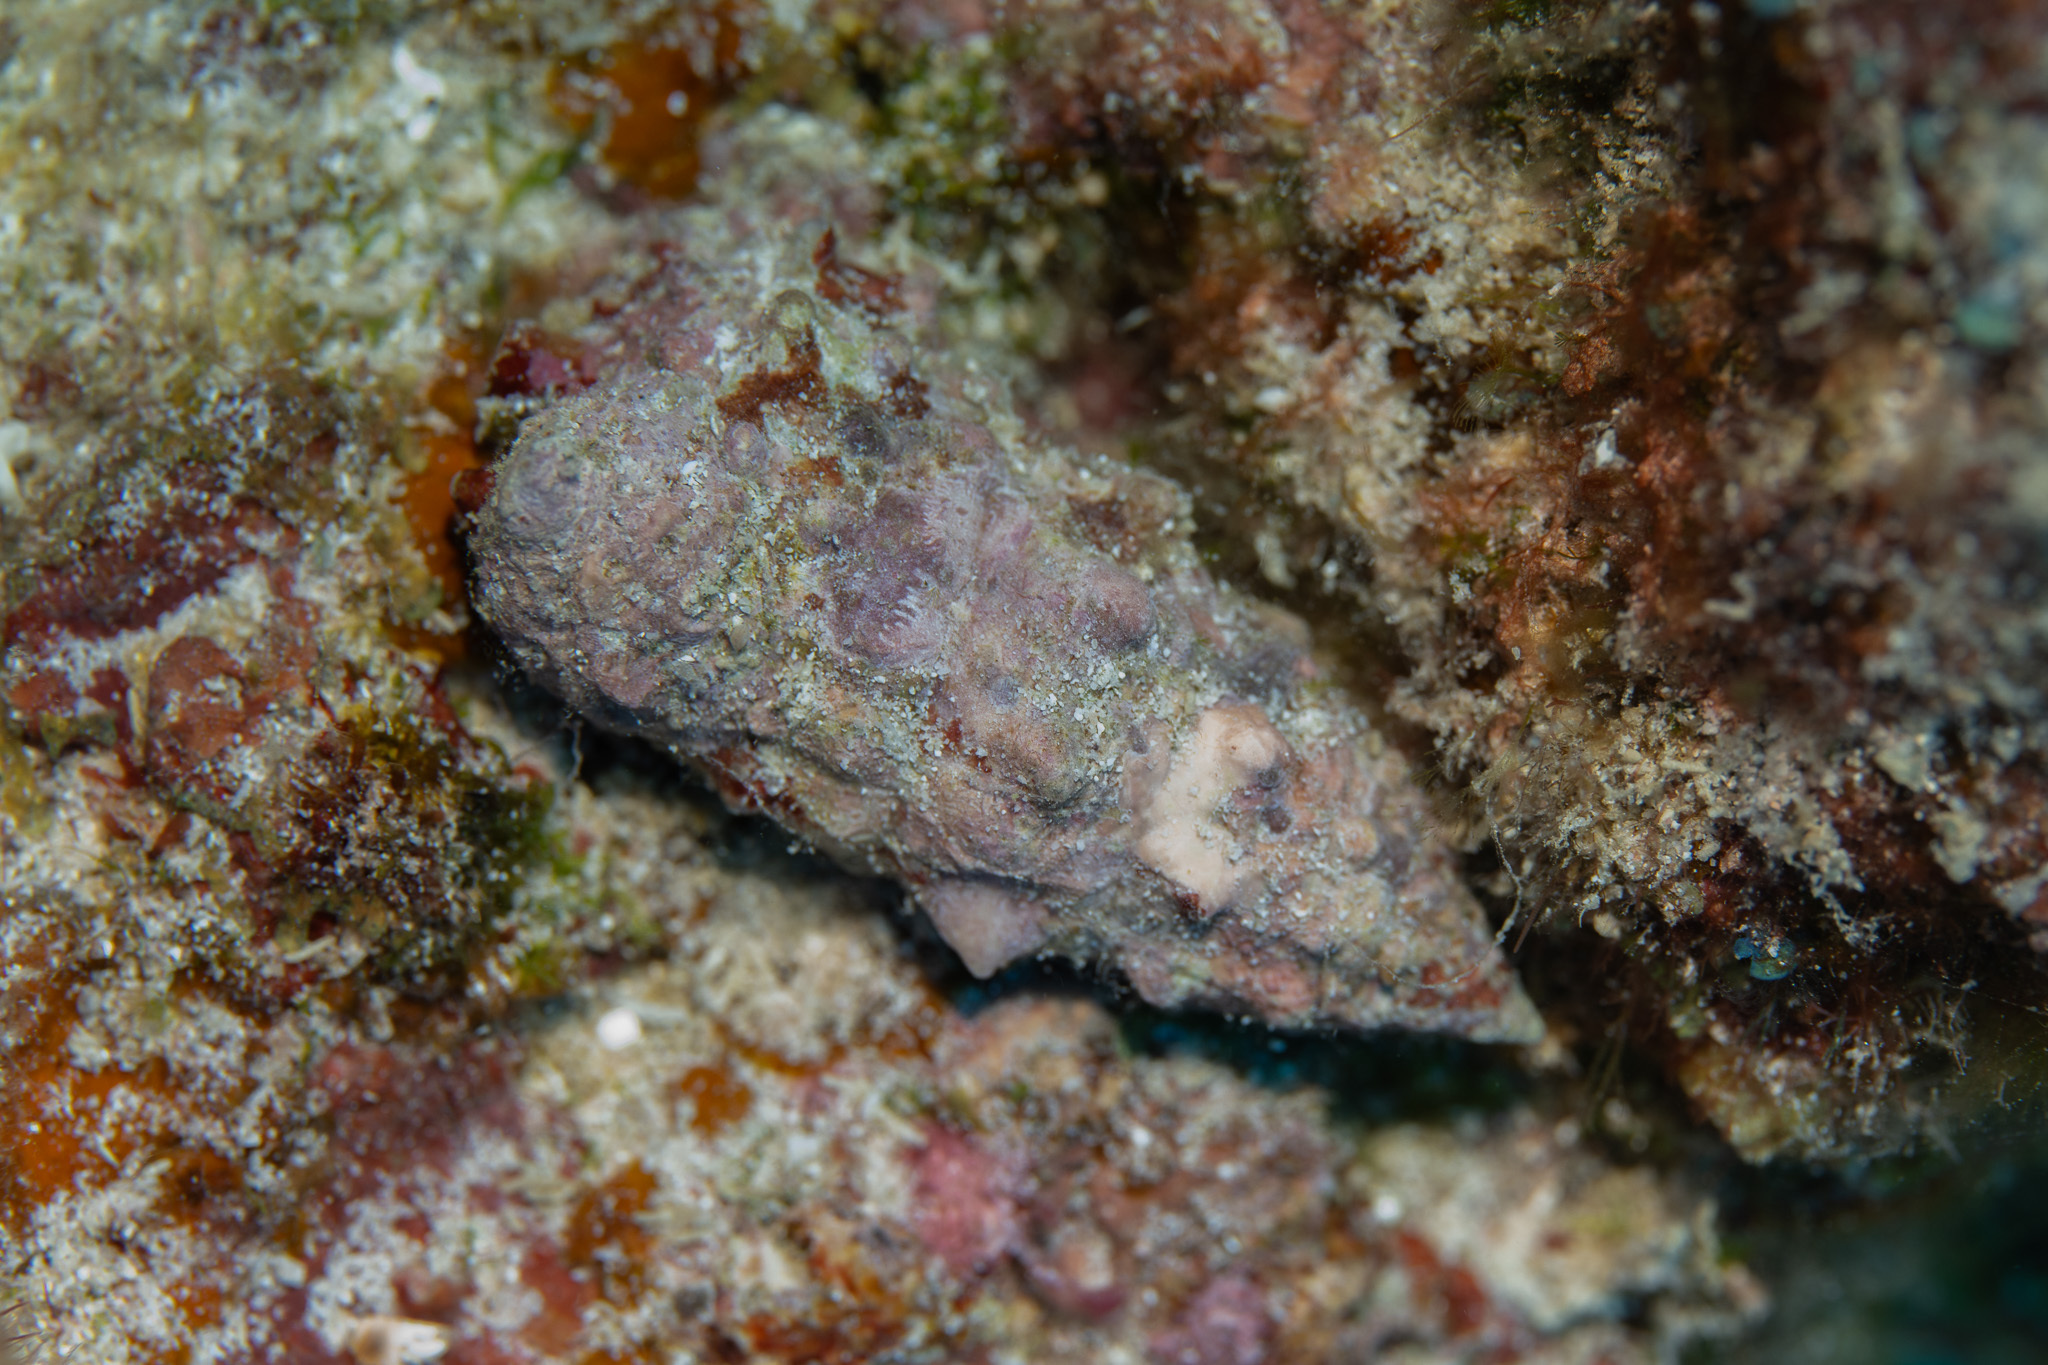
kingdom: Animalia
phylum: Mollusca
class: Gastropoda
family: Cerithiidae
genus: Cerithium
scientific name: Cerithium echinatum
